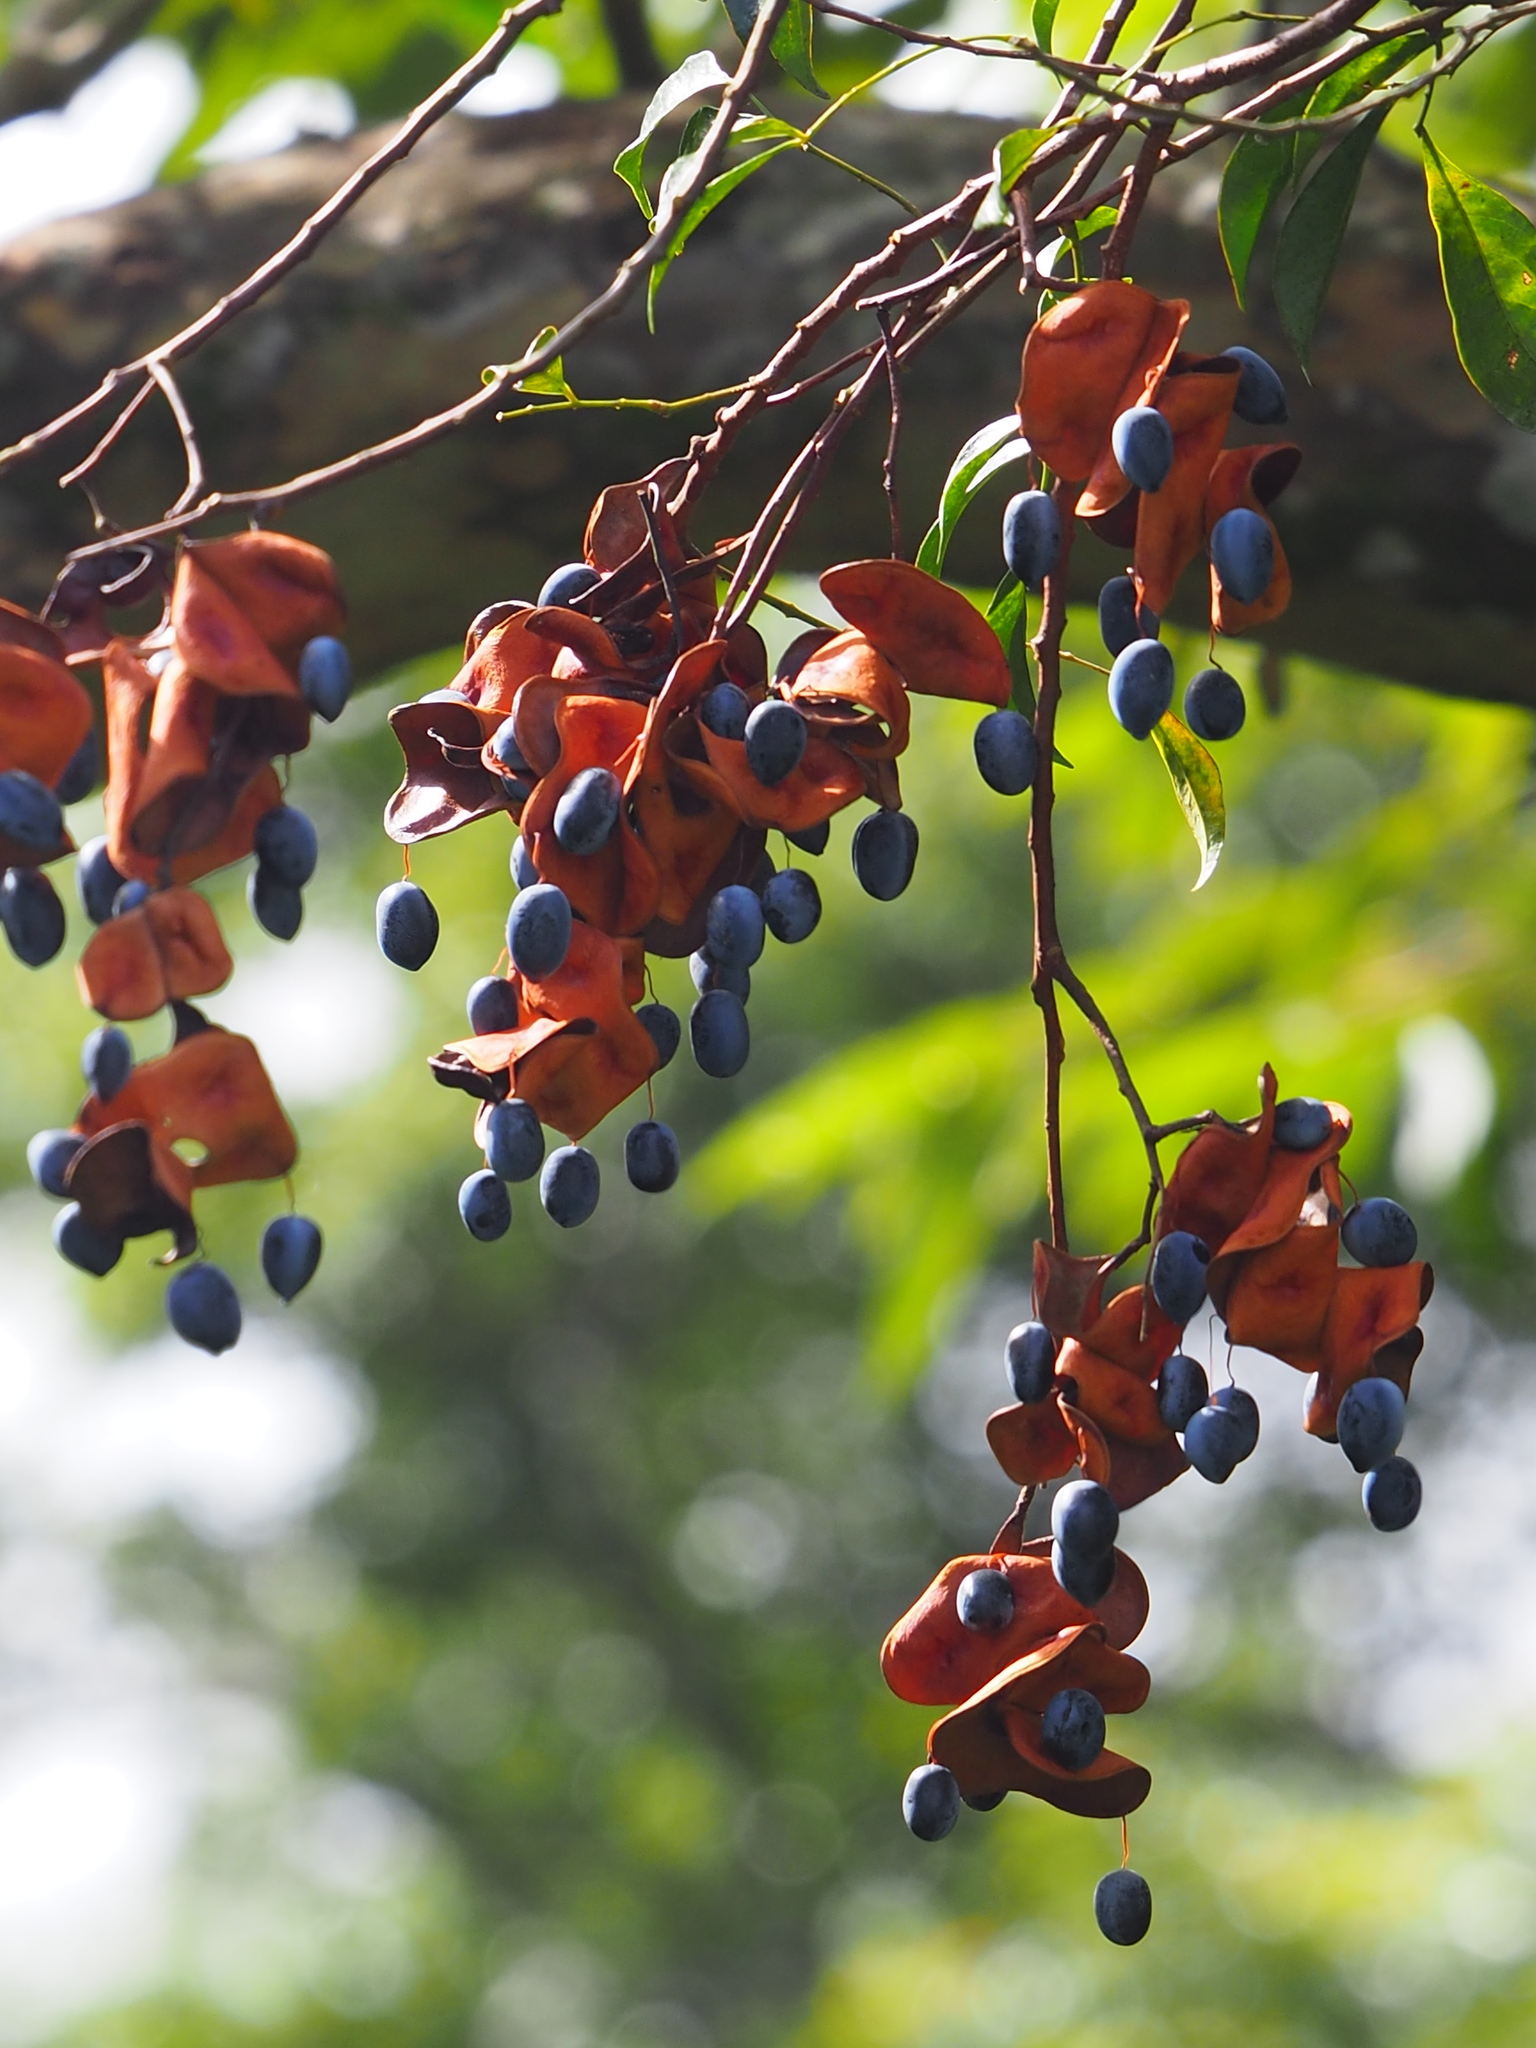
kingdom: Plantae
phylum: Tracheophyta
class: Magnoliopsida
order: Fabales
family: Fabaceae
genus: Archidendron
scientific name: Archidendron lucidum
